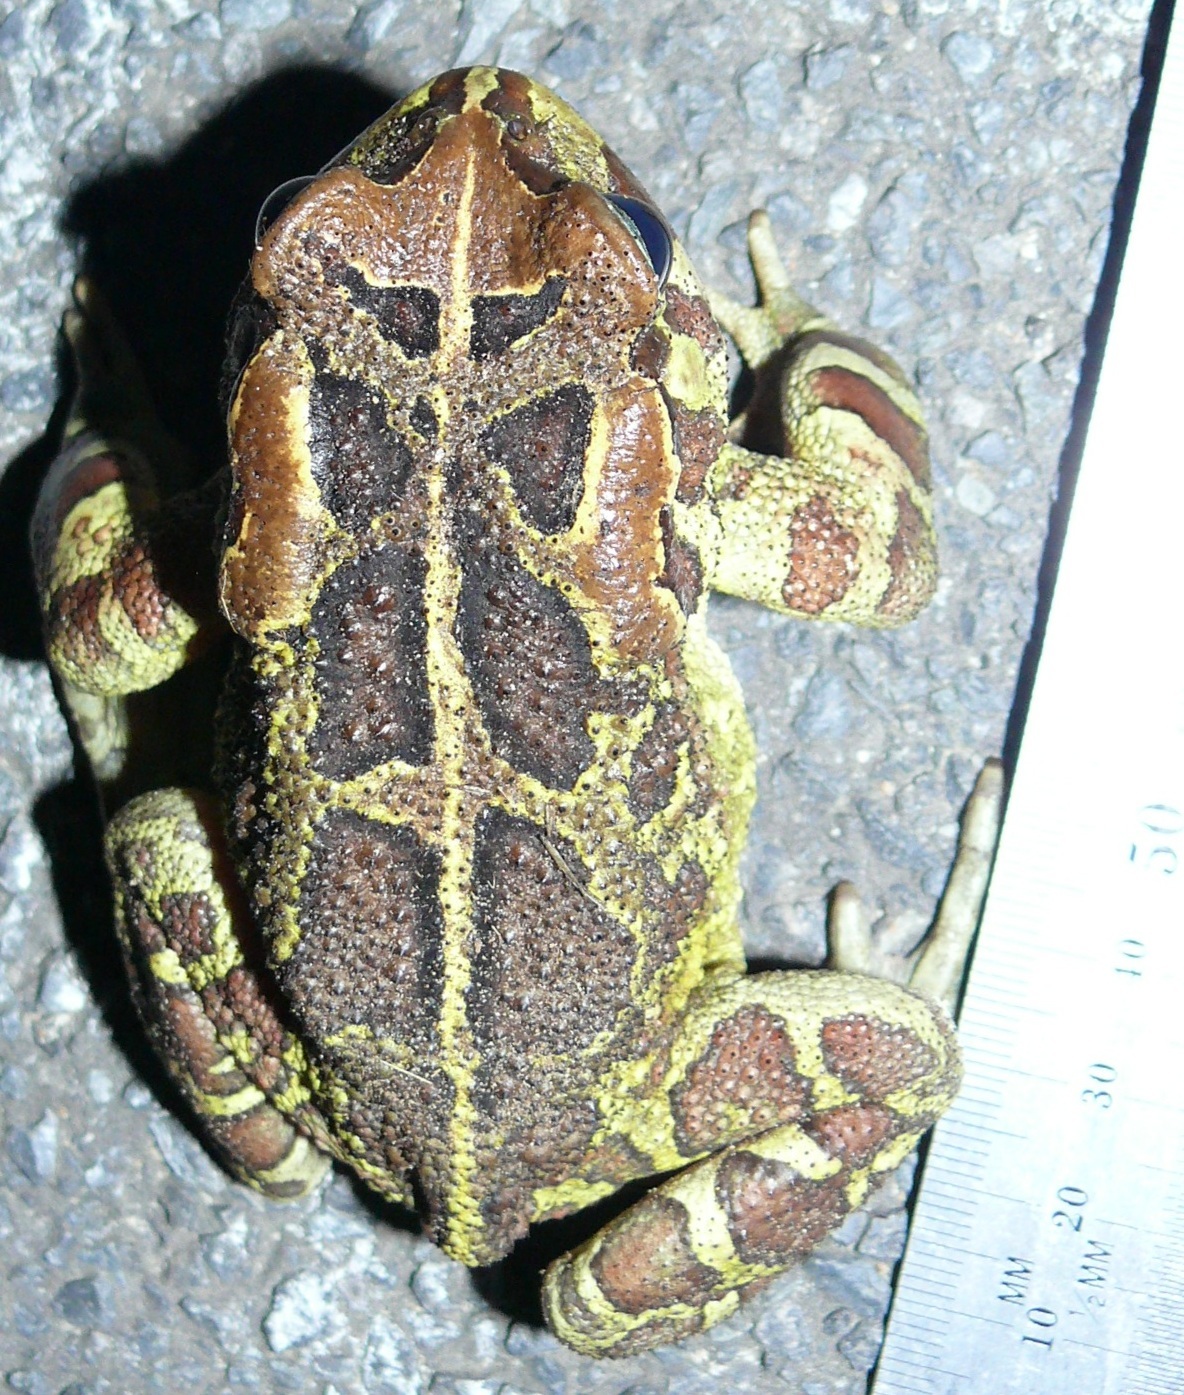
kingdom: Animalia
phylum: Chordata
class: Amphibia
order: Anura
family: Bufonidae
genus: Sclerophrys
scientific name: Sclerophrys pantherina
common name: Panther toad
